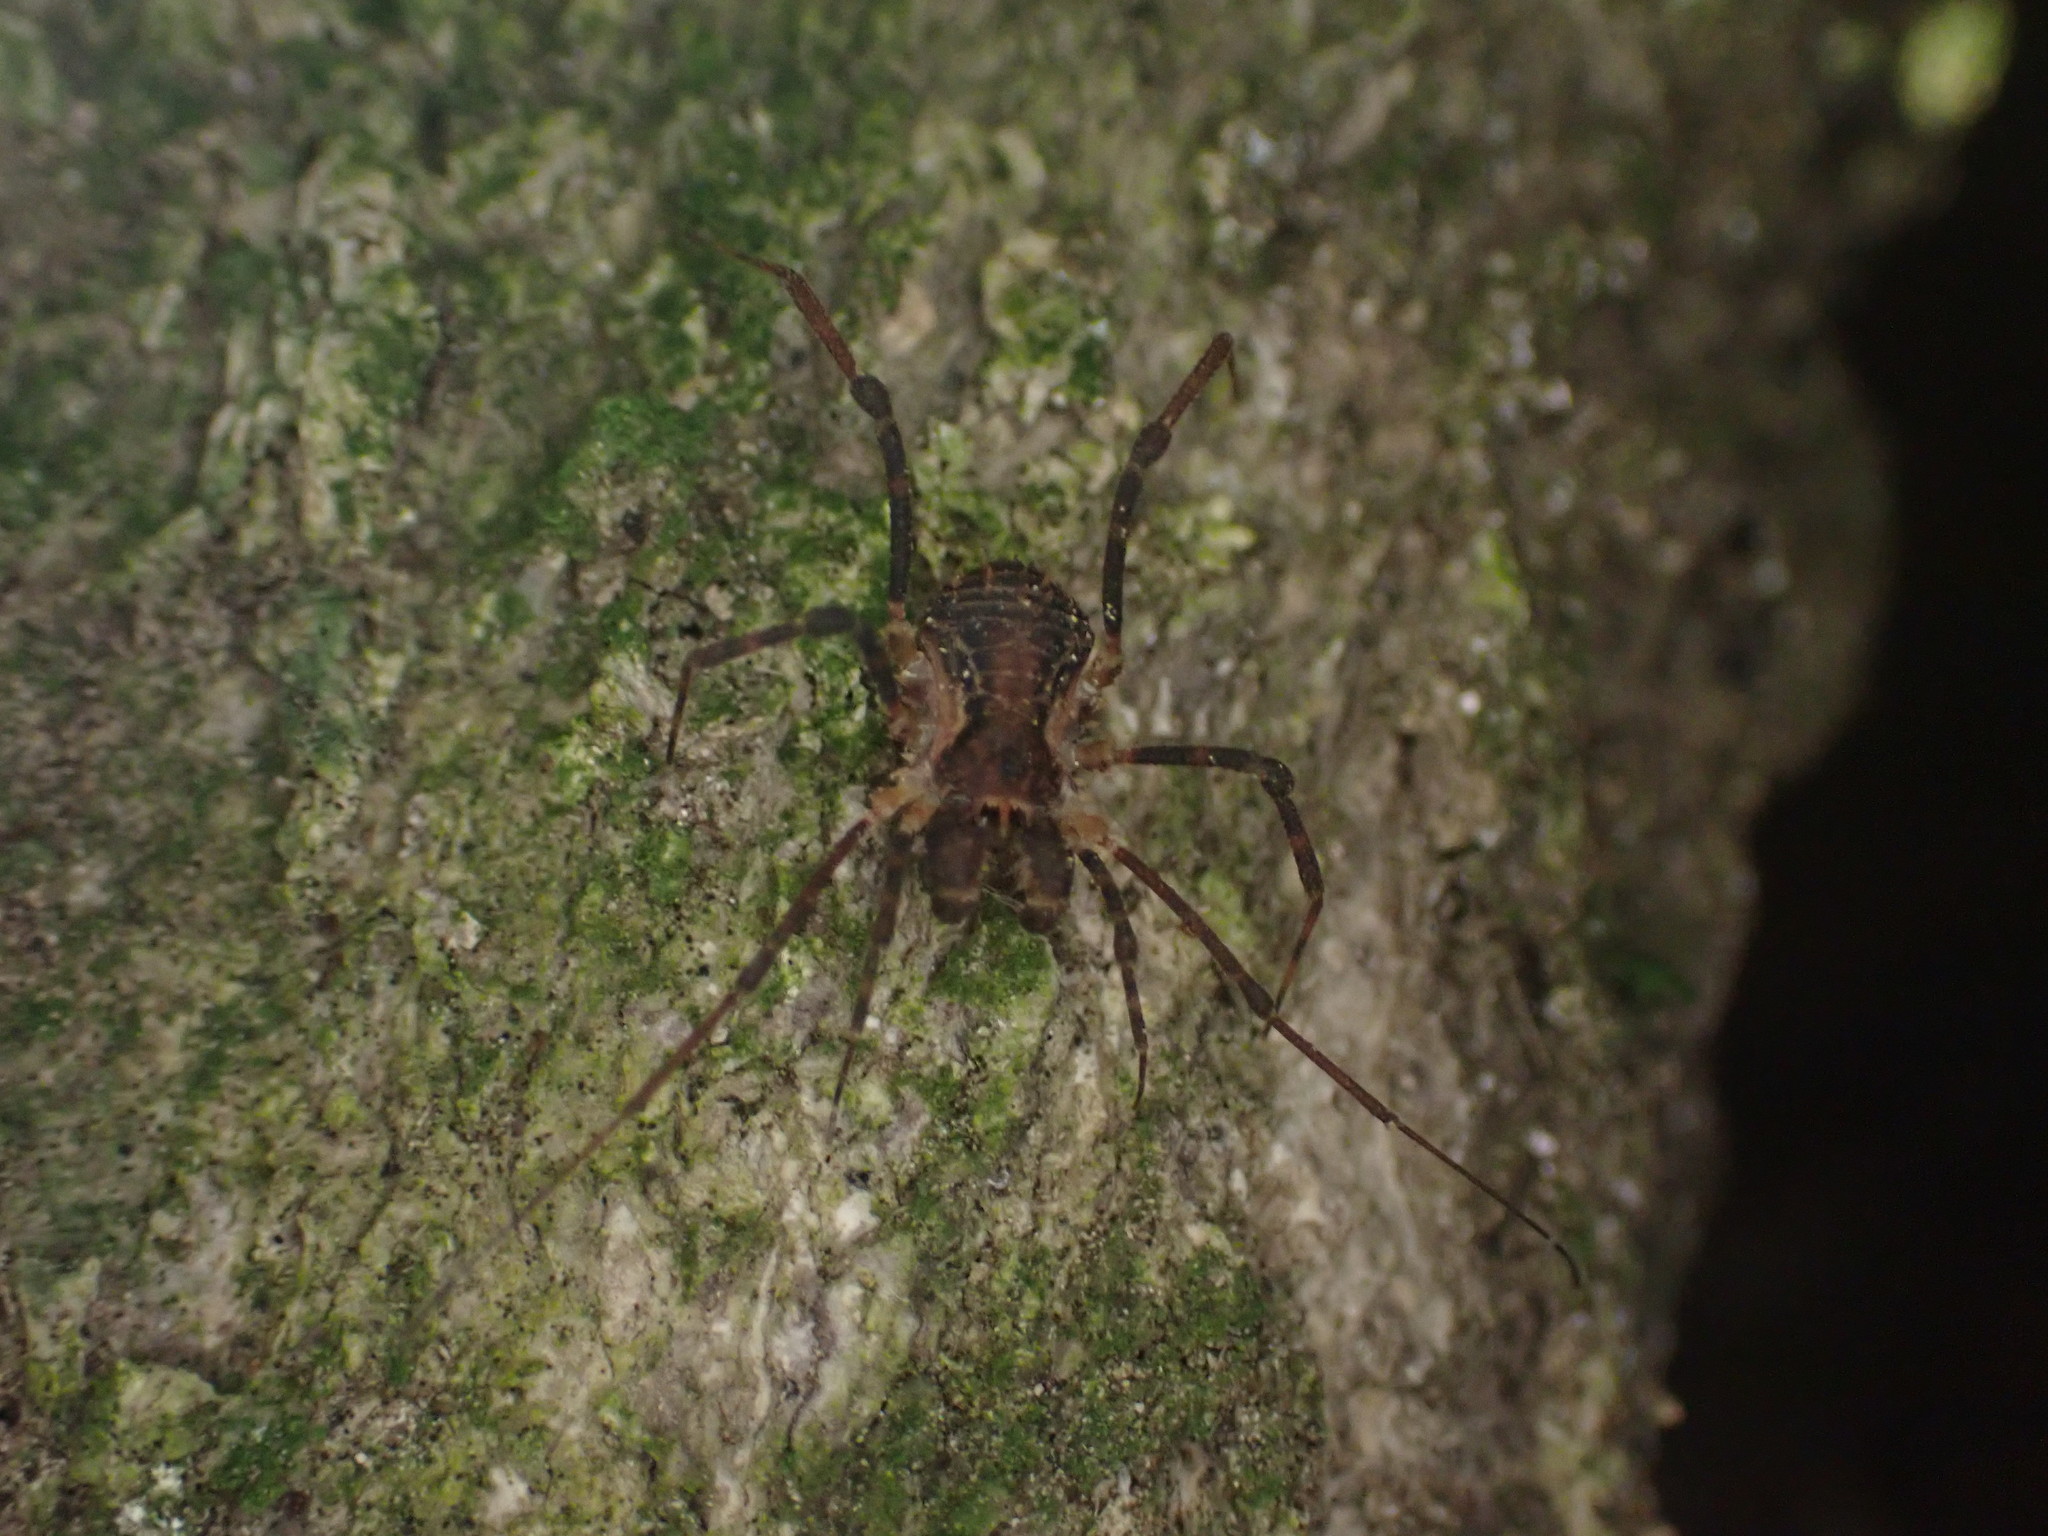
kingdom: Animalia
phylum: Arthropoda
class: Arachnida
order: Opiliones
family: Triaenonychidae
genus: Algidia
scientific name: Algidia nigriflava
